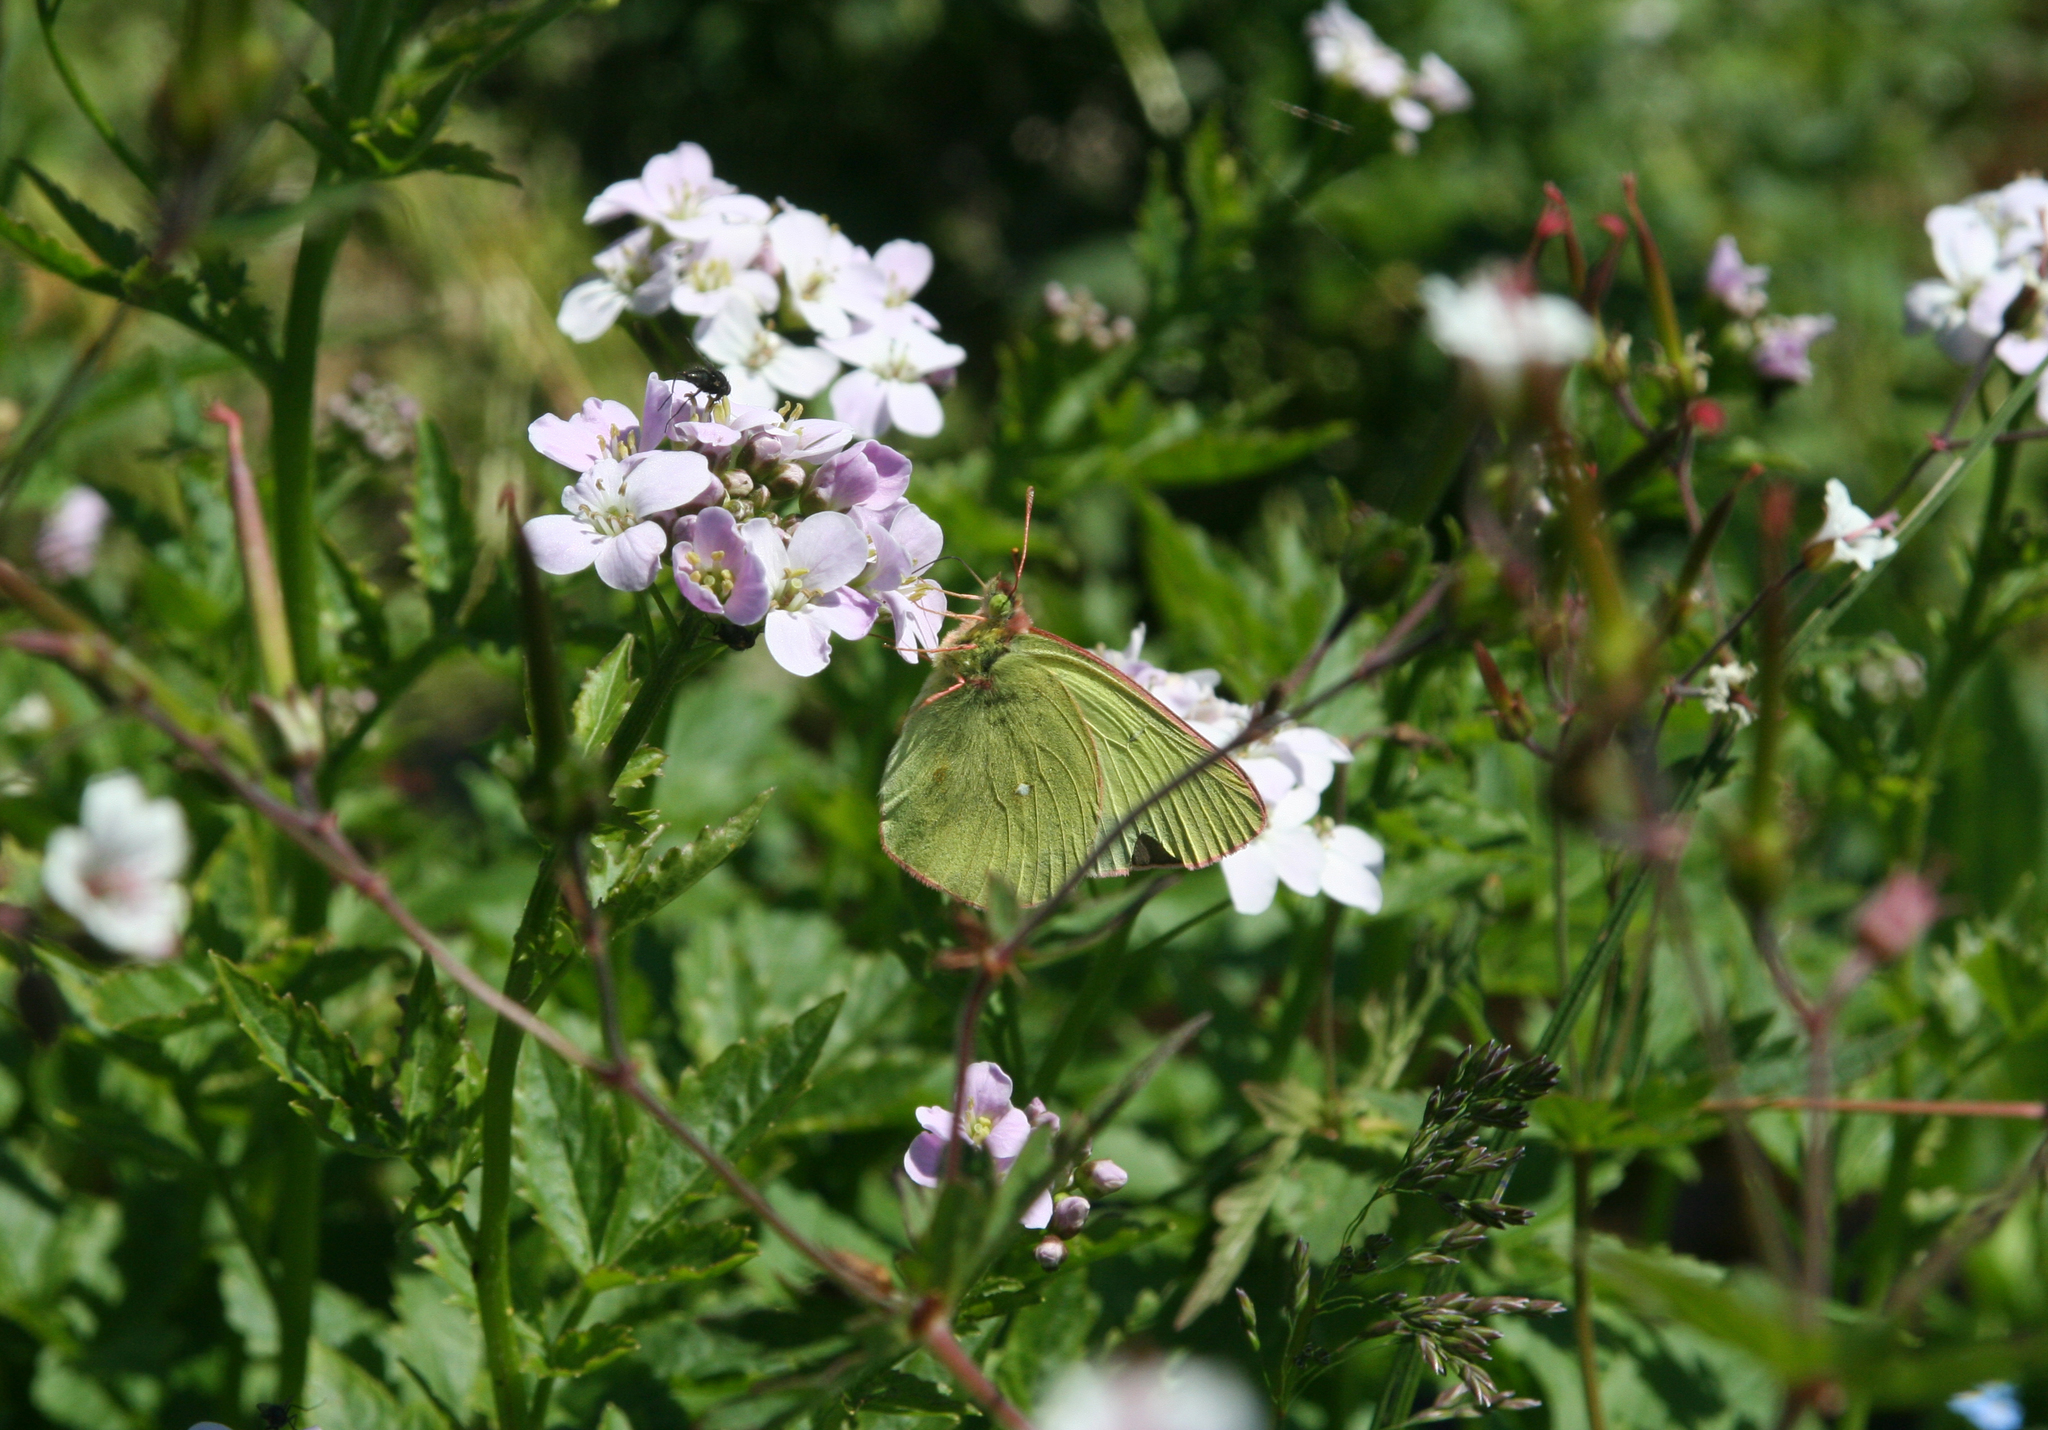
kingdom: Plantae
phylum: Tracheophyta
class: Magnoliopsida
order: Brassicales
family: Brassicaceae
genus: Cardamine
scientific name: Cardamine macrophylla
